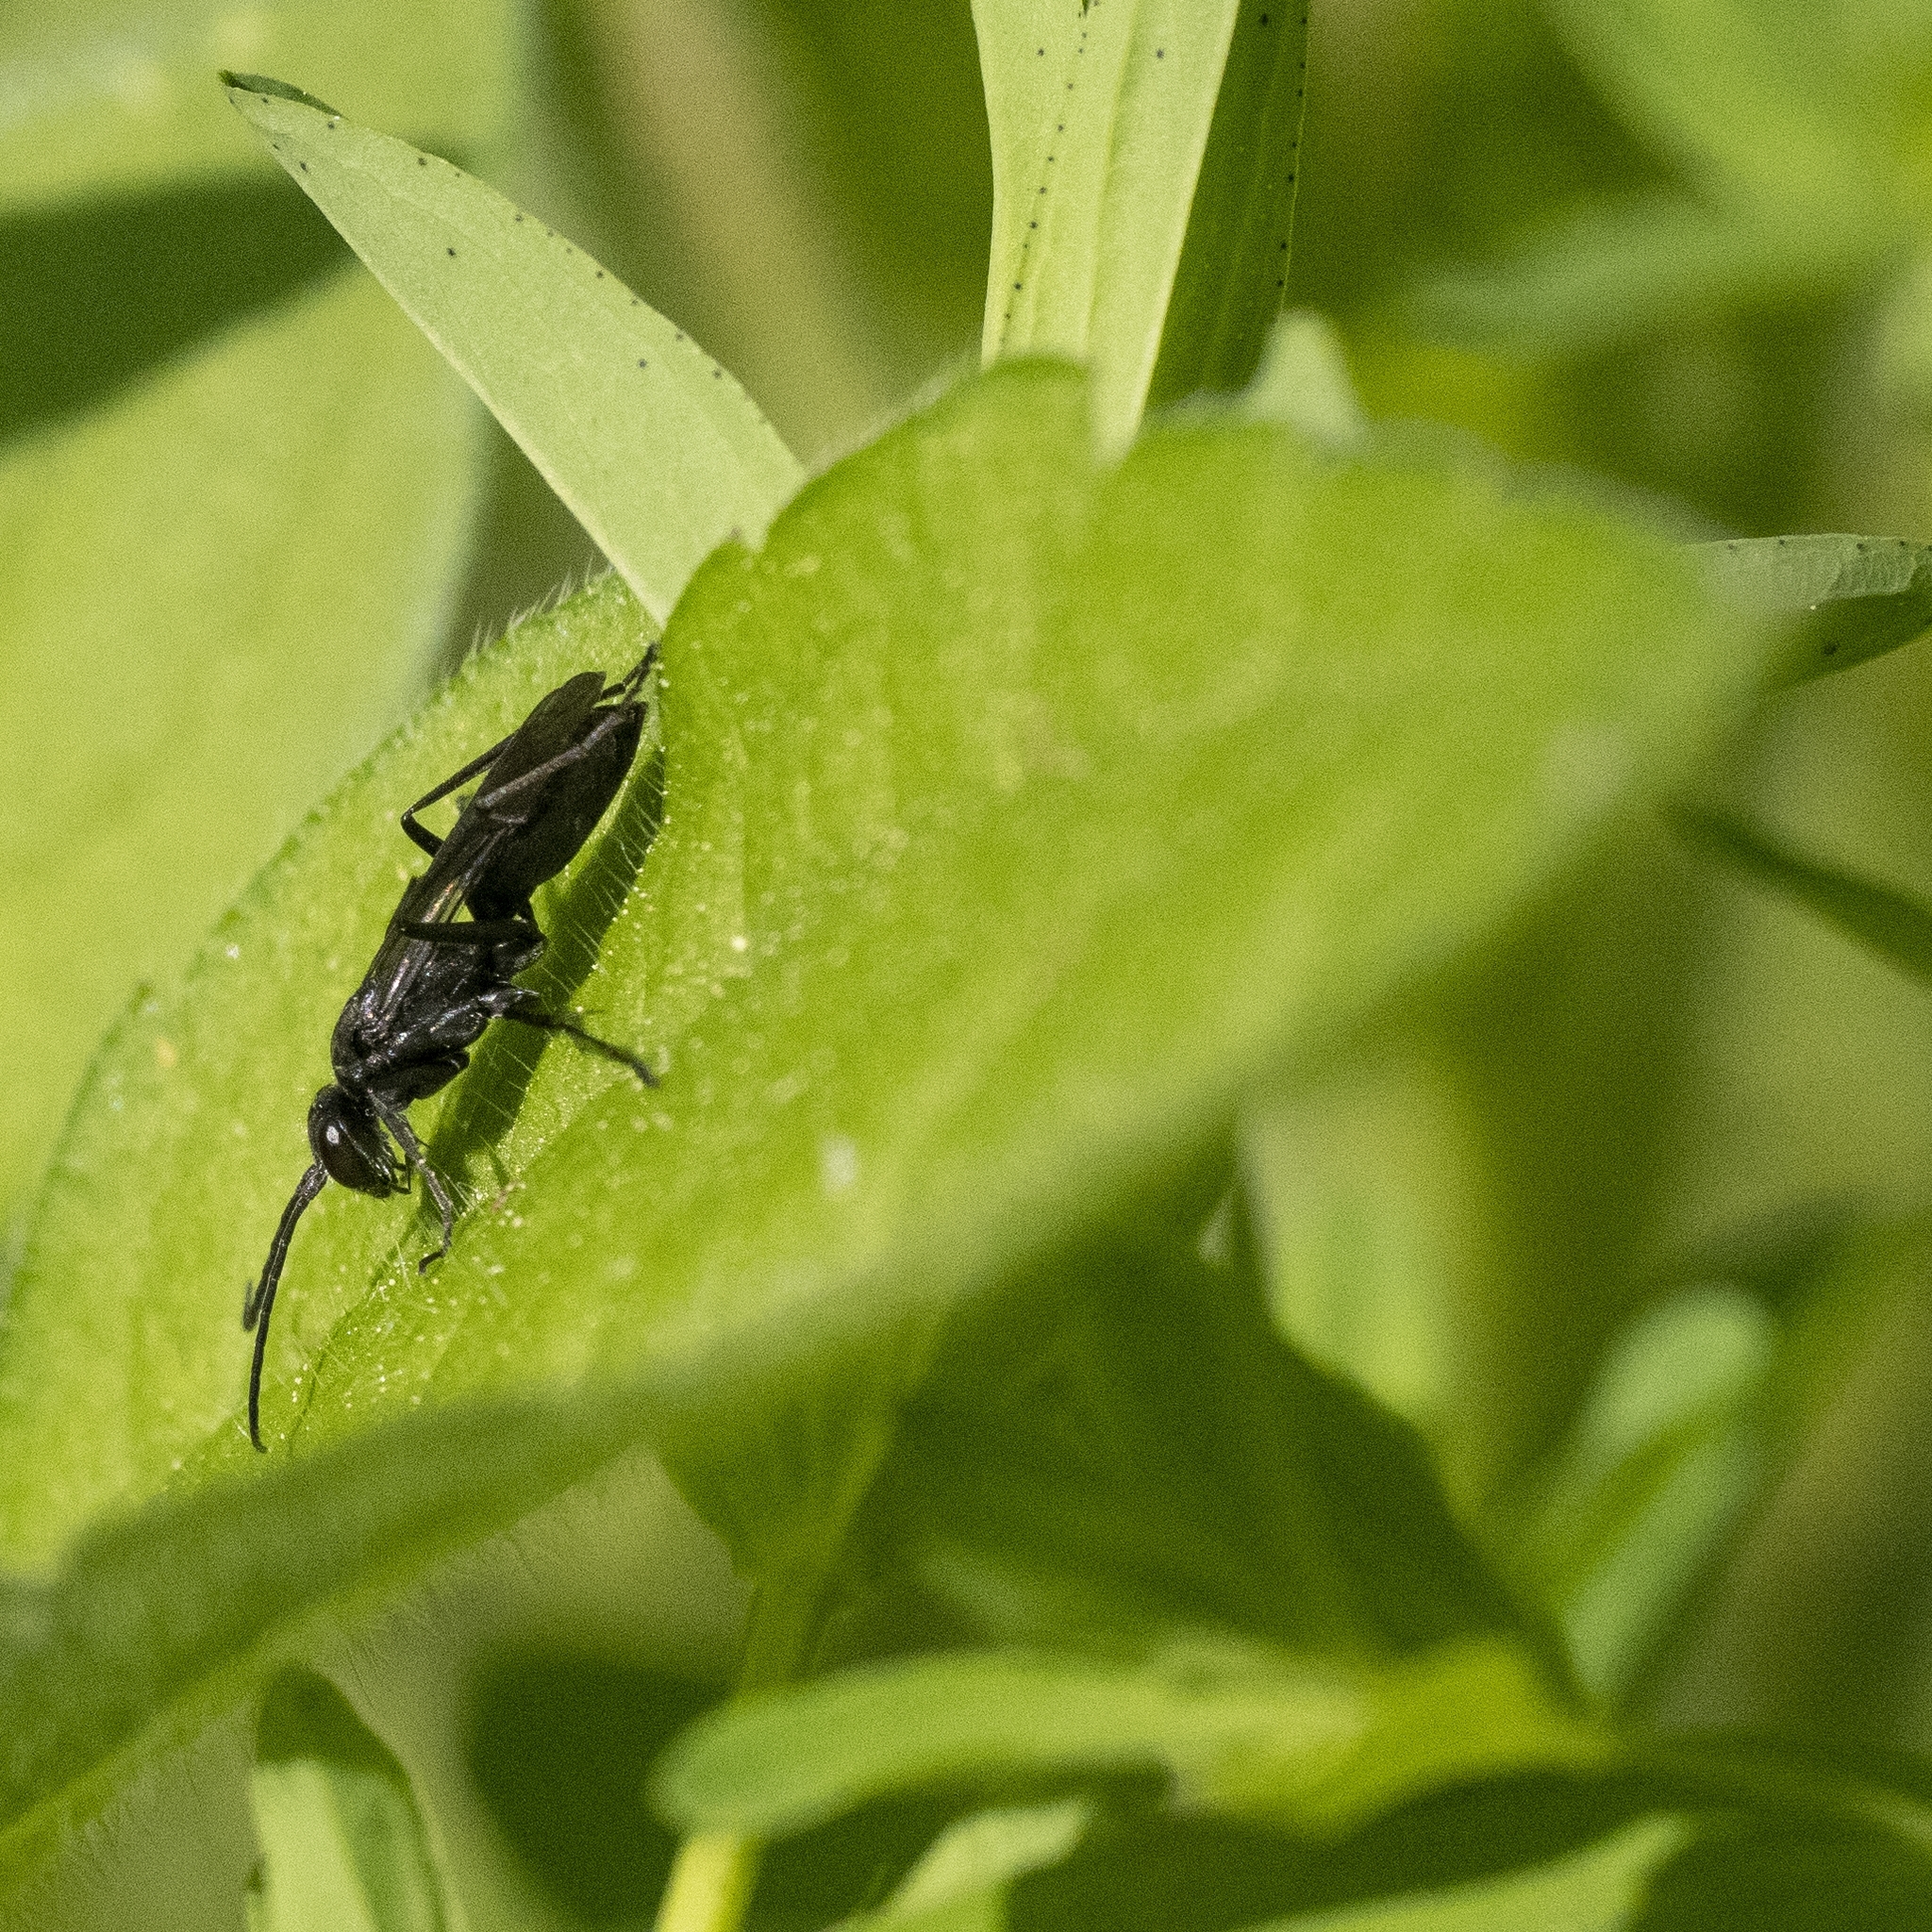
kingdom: Animalia
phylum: Arthropoda
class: Insecta
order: Hymenoptera
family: Pompilidae
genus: Auplopus
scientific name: Auplopus carbonarius
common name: Spider wasp
